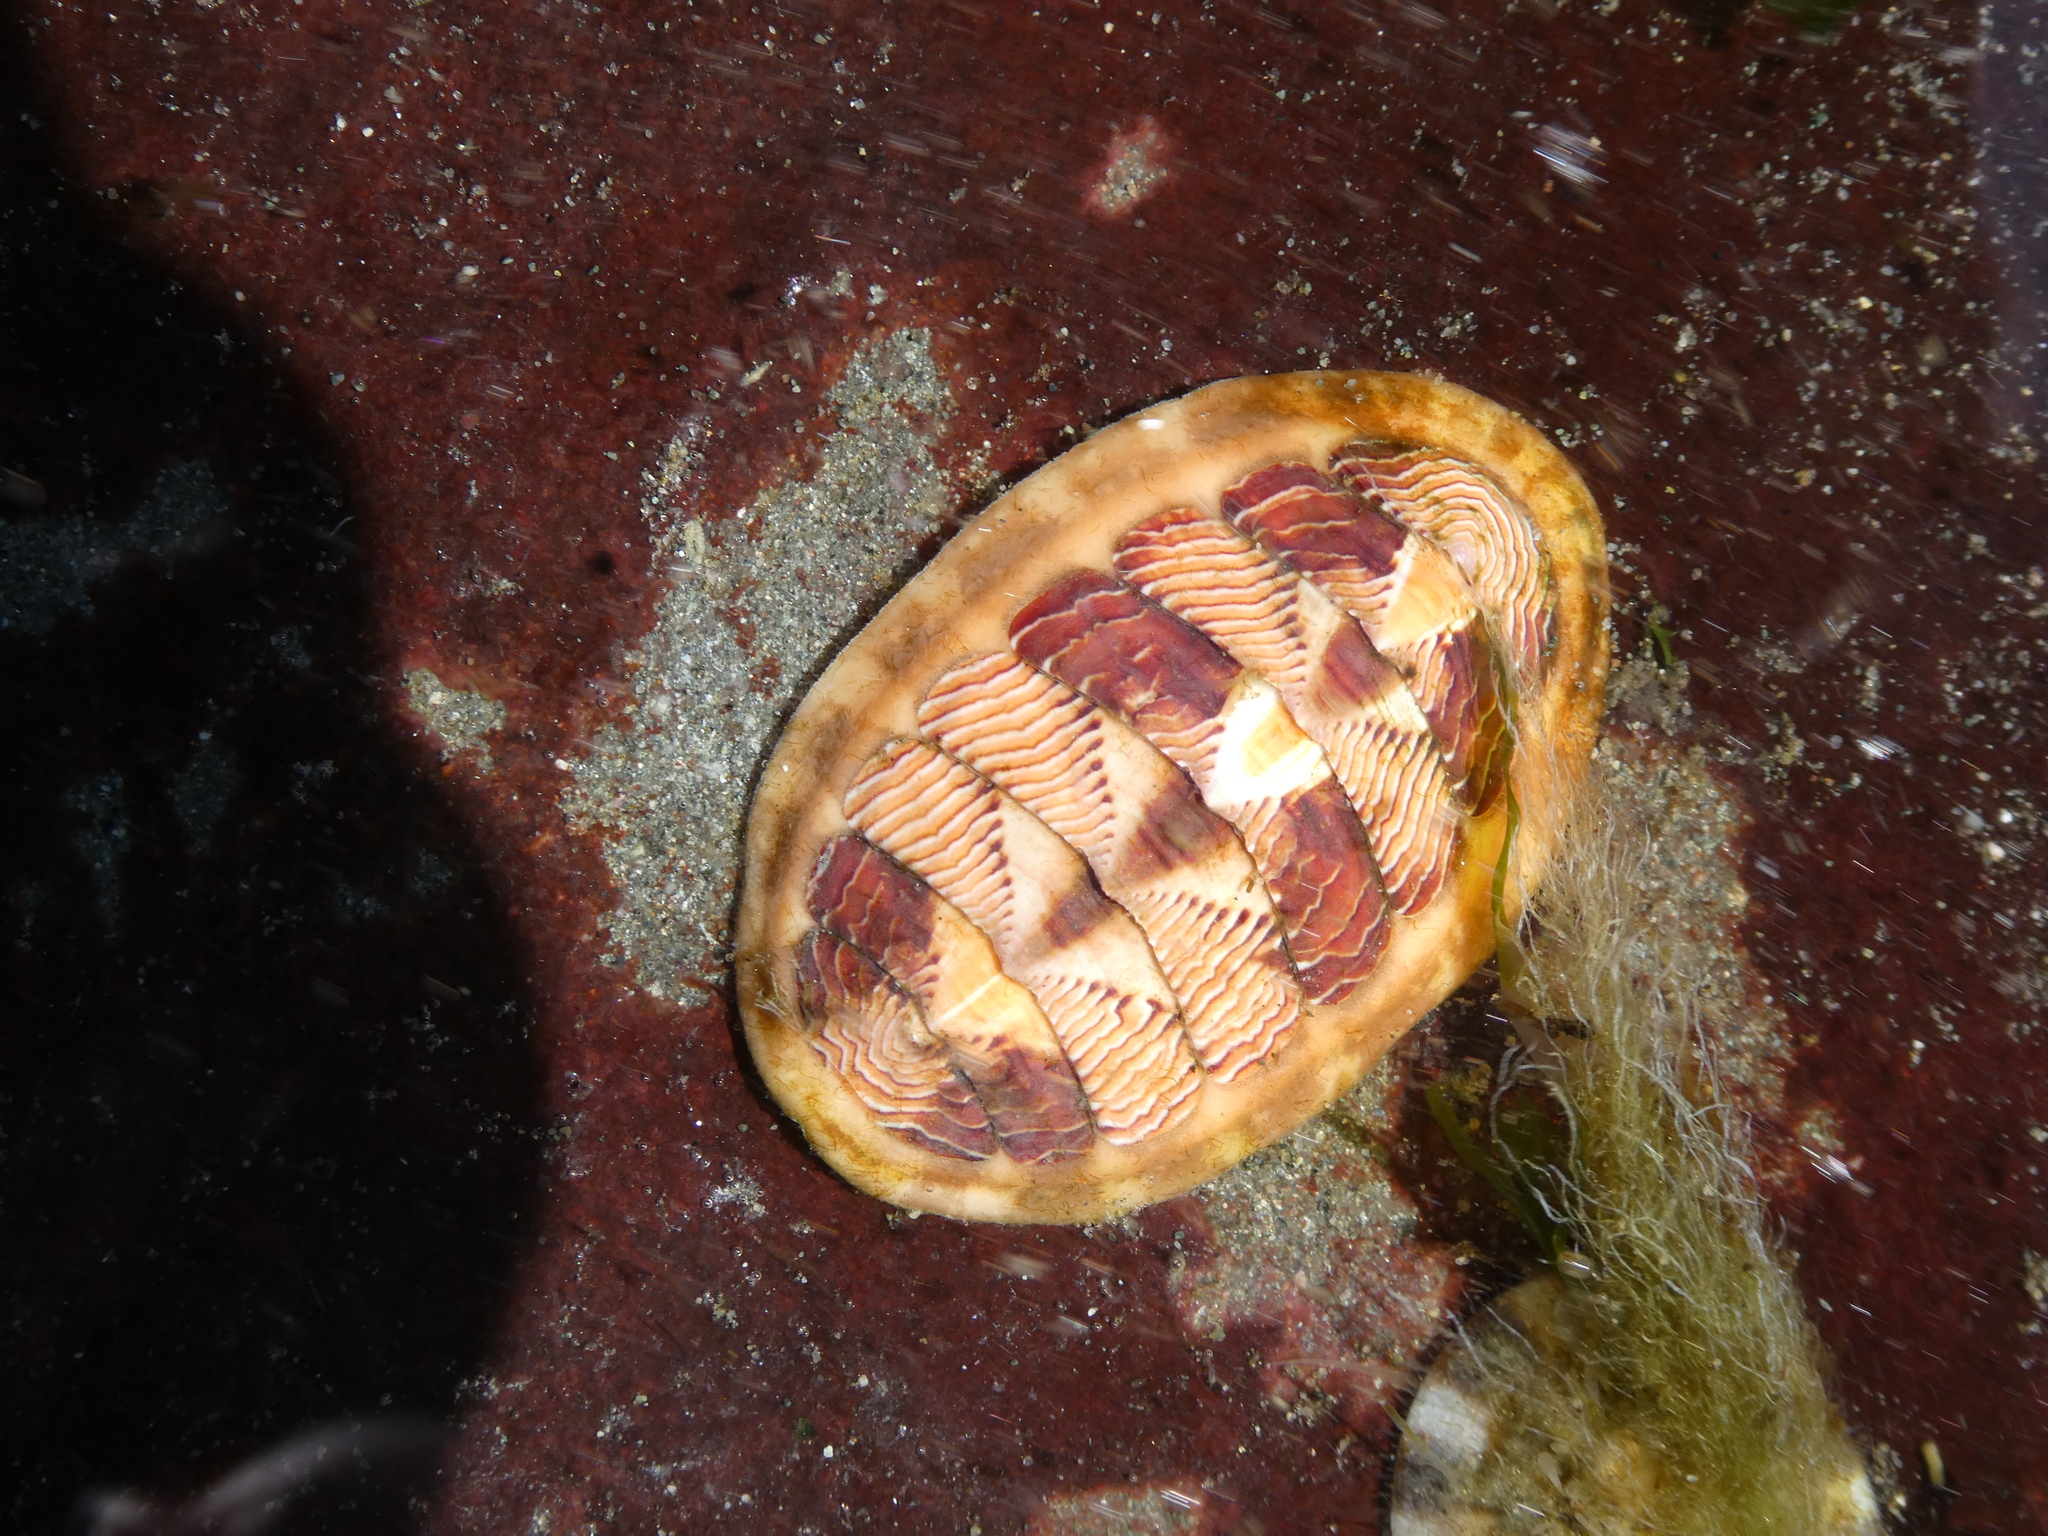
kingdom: Animalia
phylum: Mollusca
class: Polyplacophora
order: Chitonida
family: Tonicellidae
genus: Tonicella
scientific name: Tonicella lineata
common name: Lined chiton
